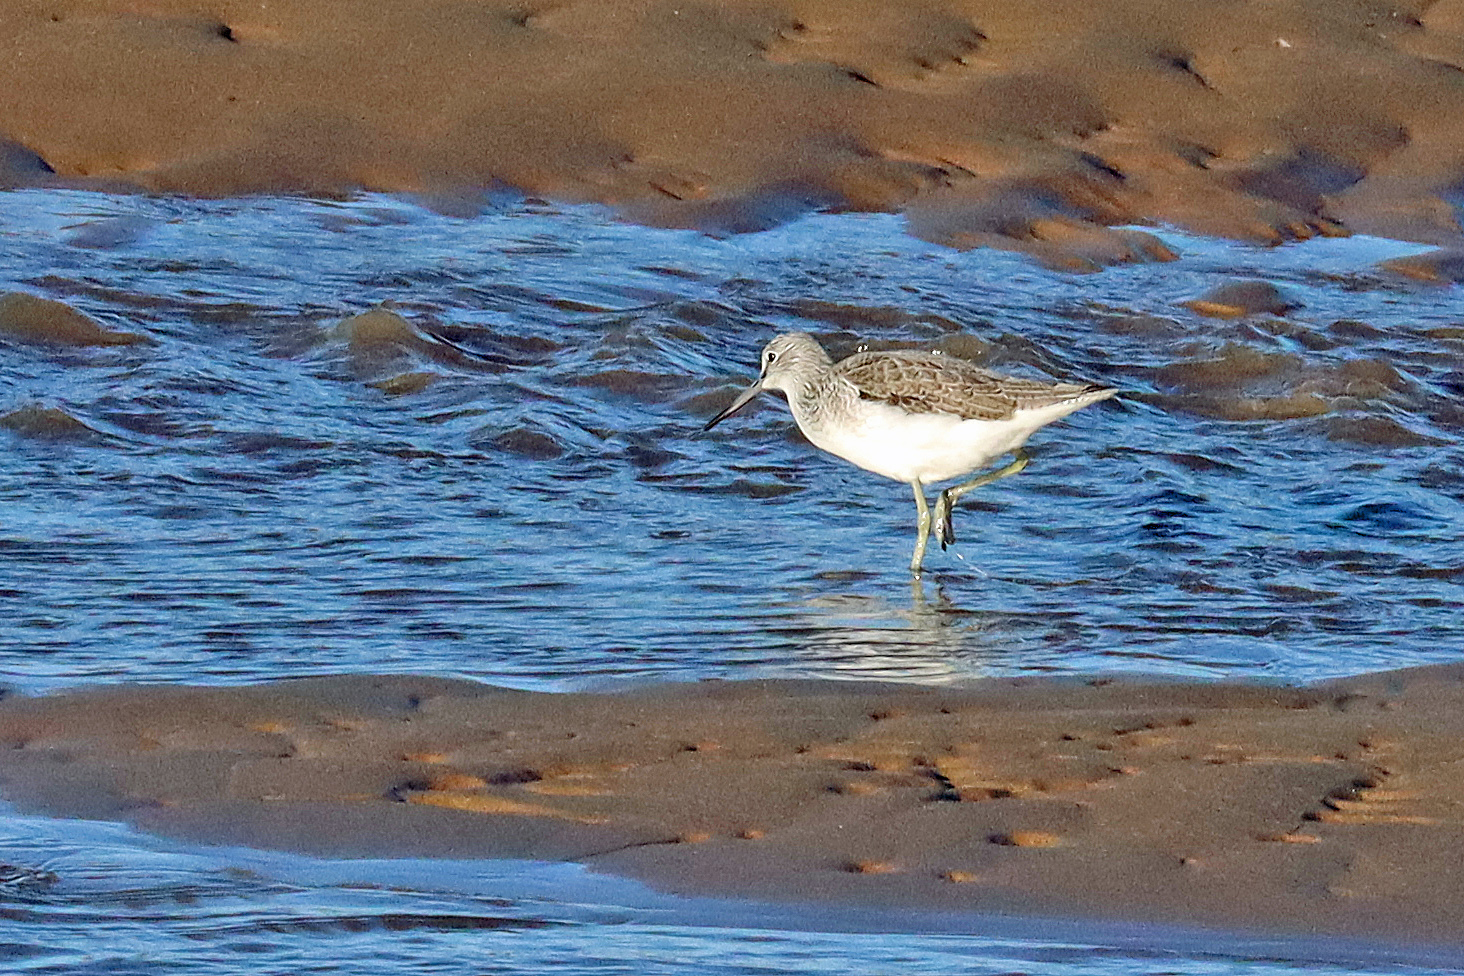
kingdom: Animalia
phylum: Chordata
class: Aves
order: Charadriiformes
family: Scolopacidae
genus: Tringa
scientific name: Tringa nebularia
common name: Common greenshank
